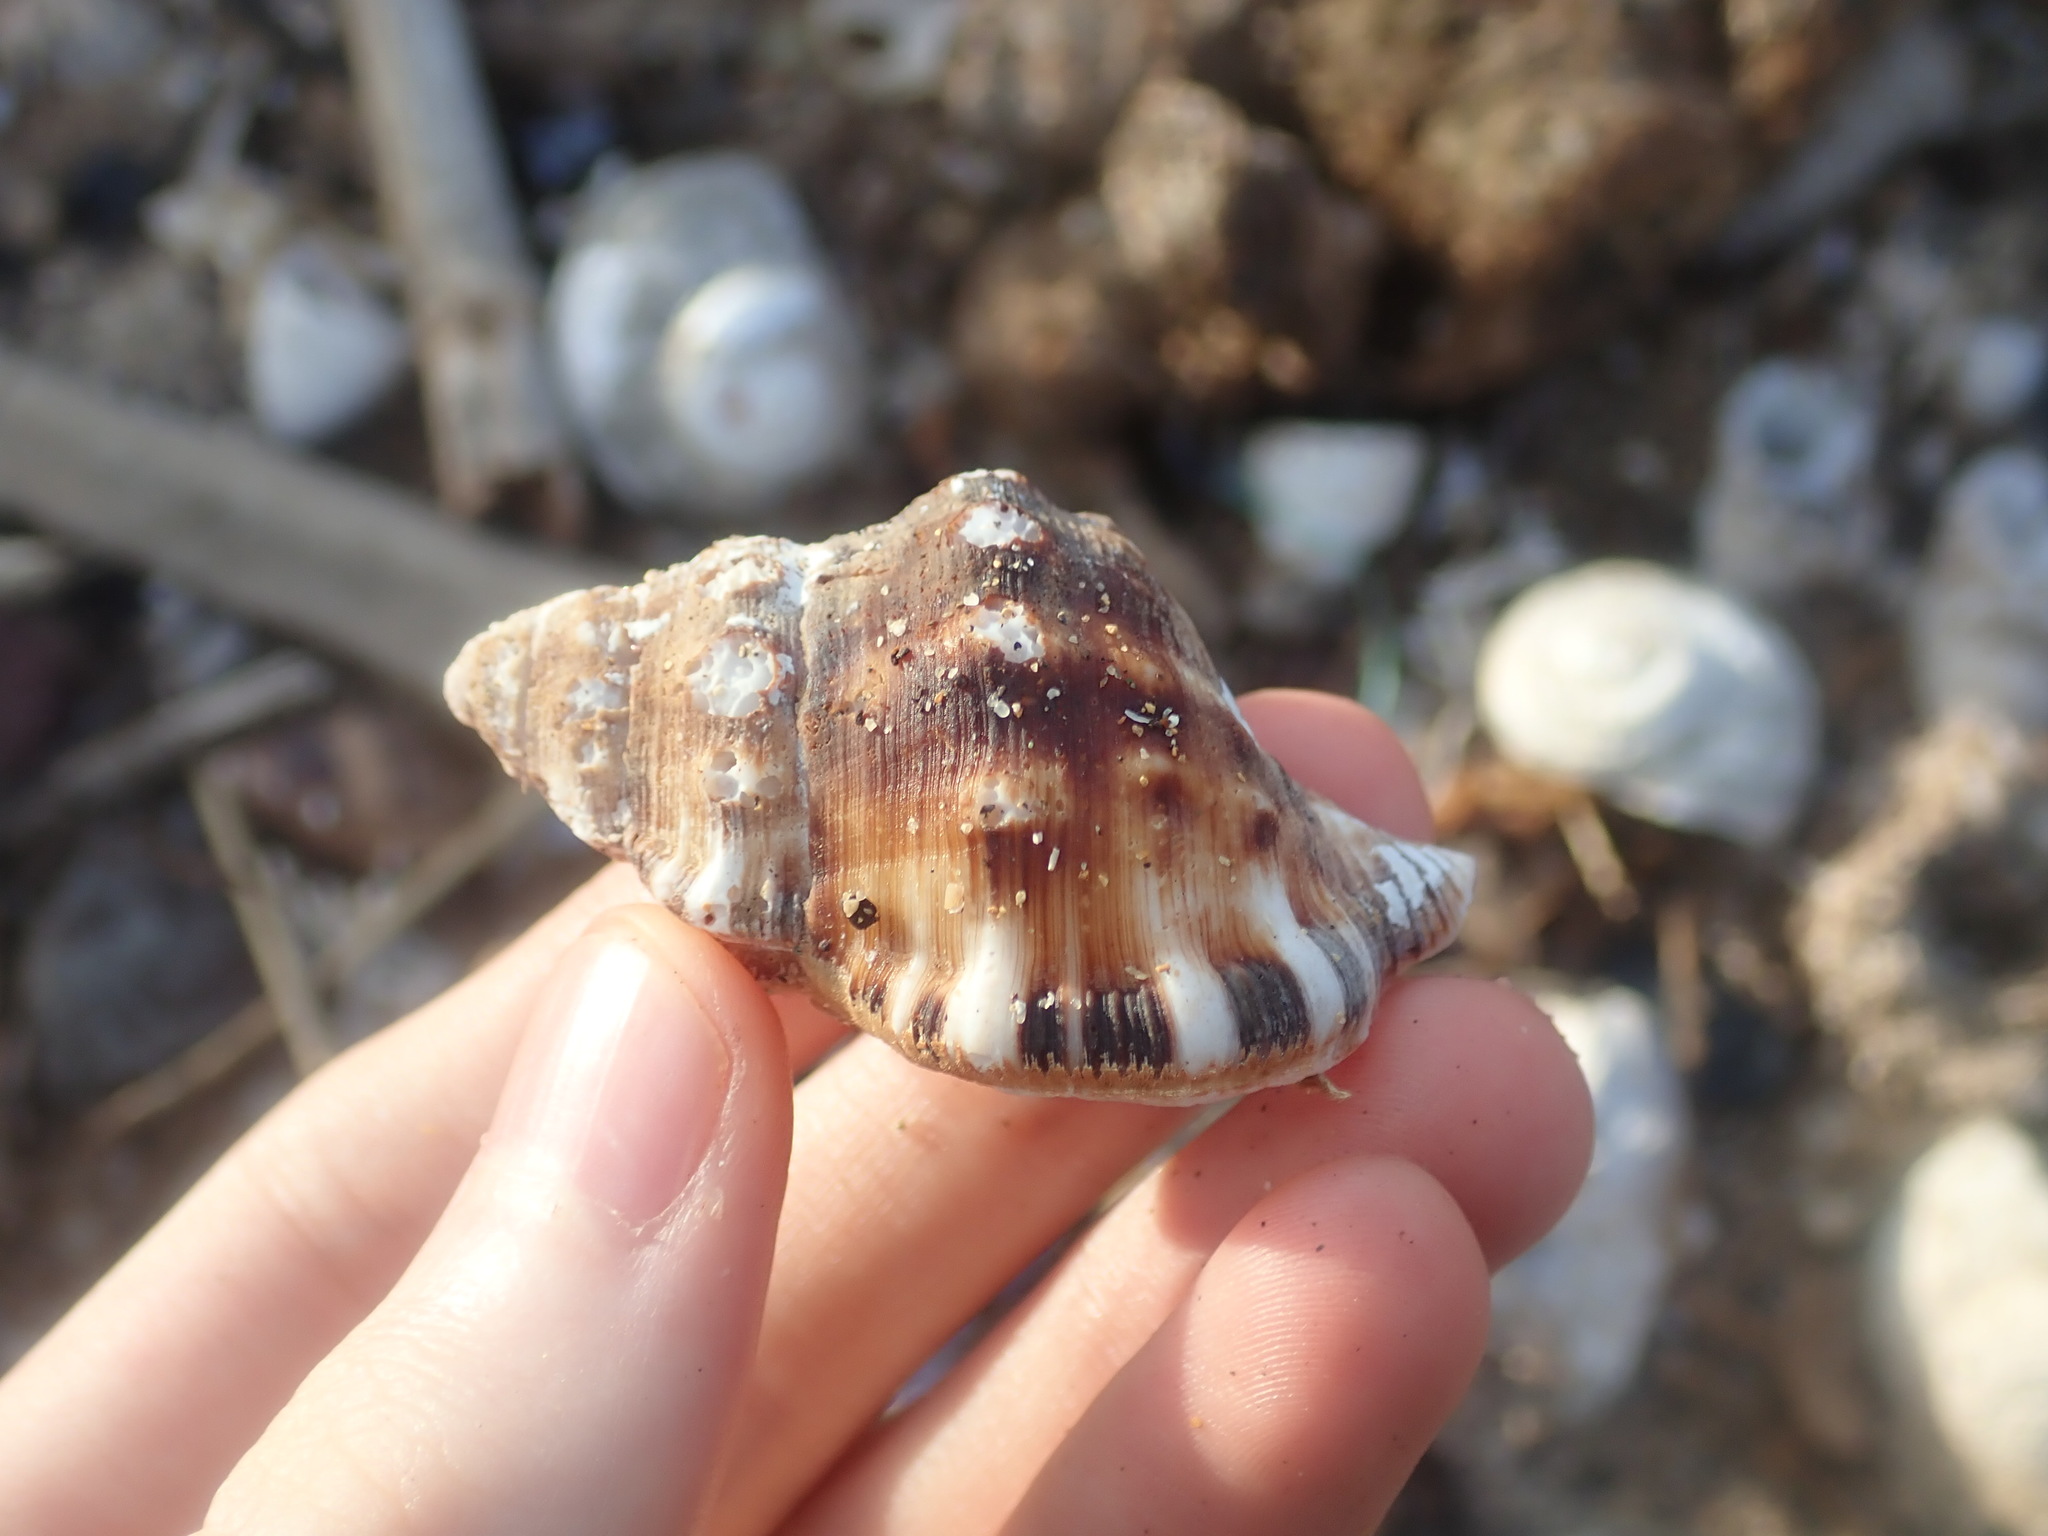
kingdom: Animalia
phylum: Mollusca
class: Gastropoda
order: Littorinimorpha
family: Ranellidae
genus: Ranella
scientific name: Ranella australasia
